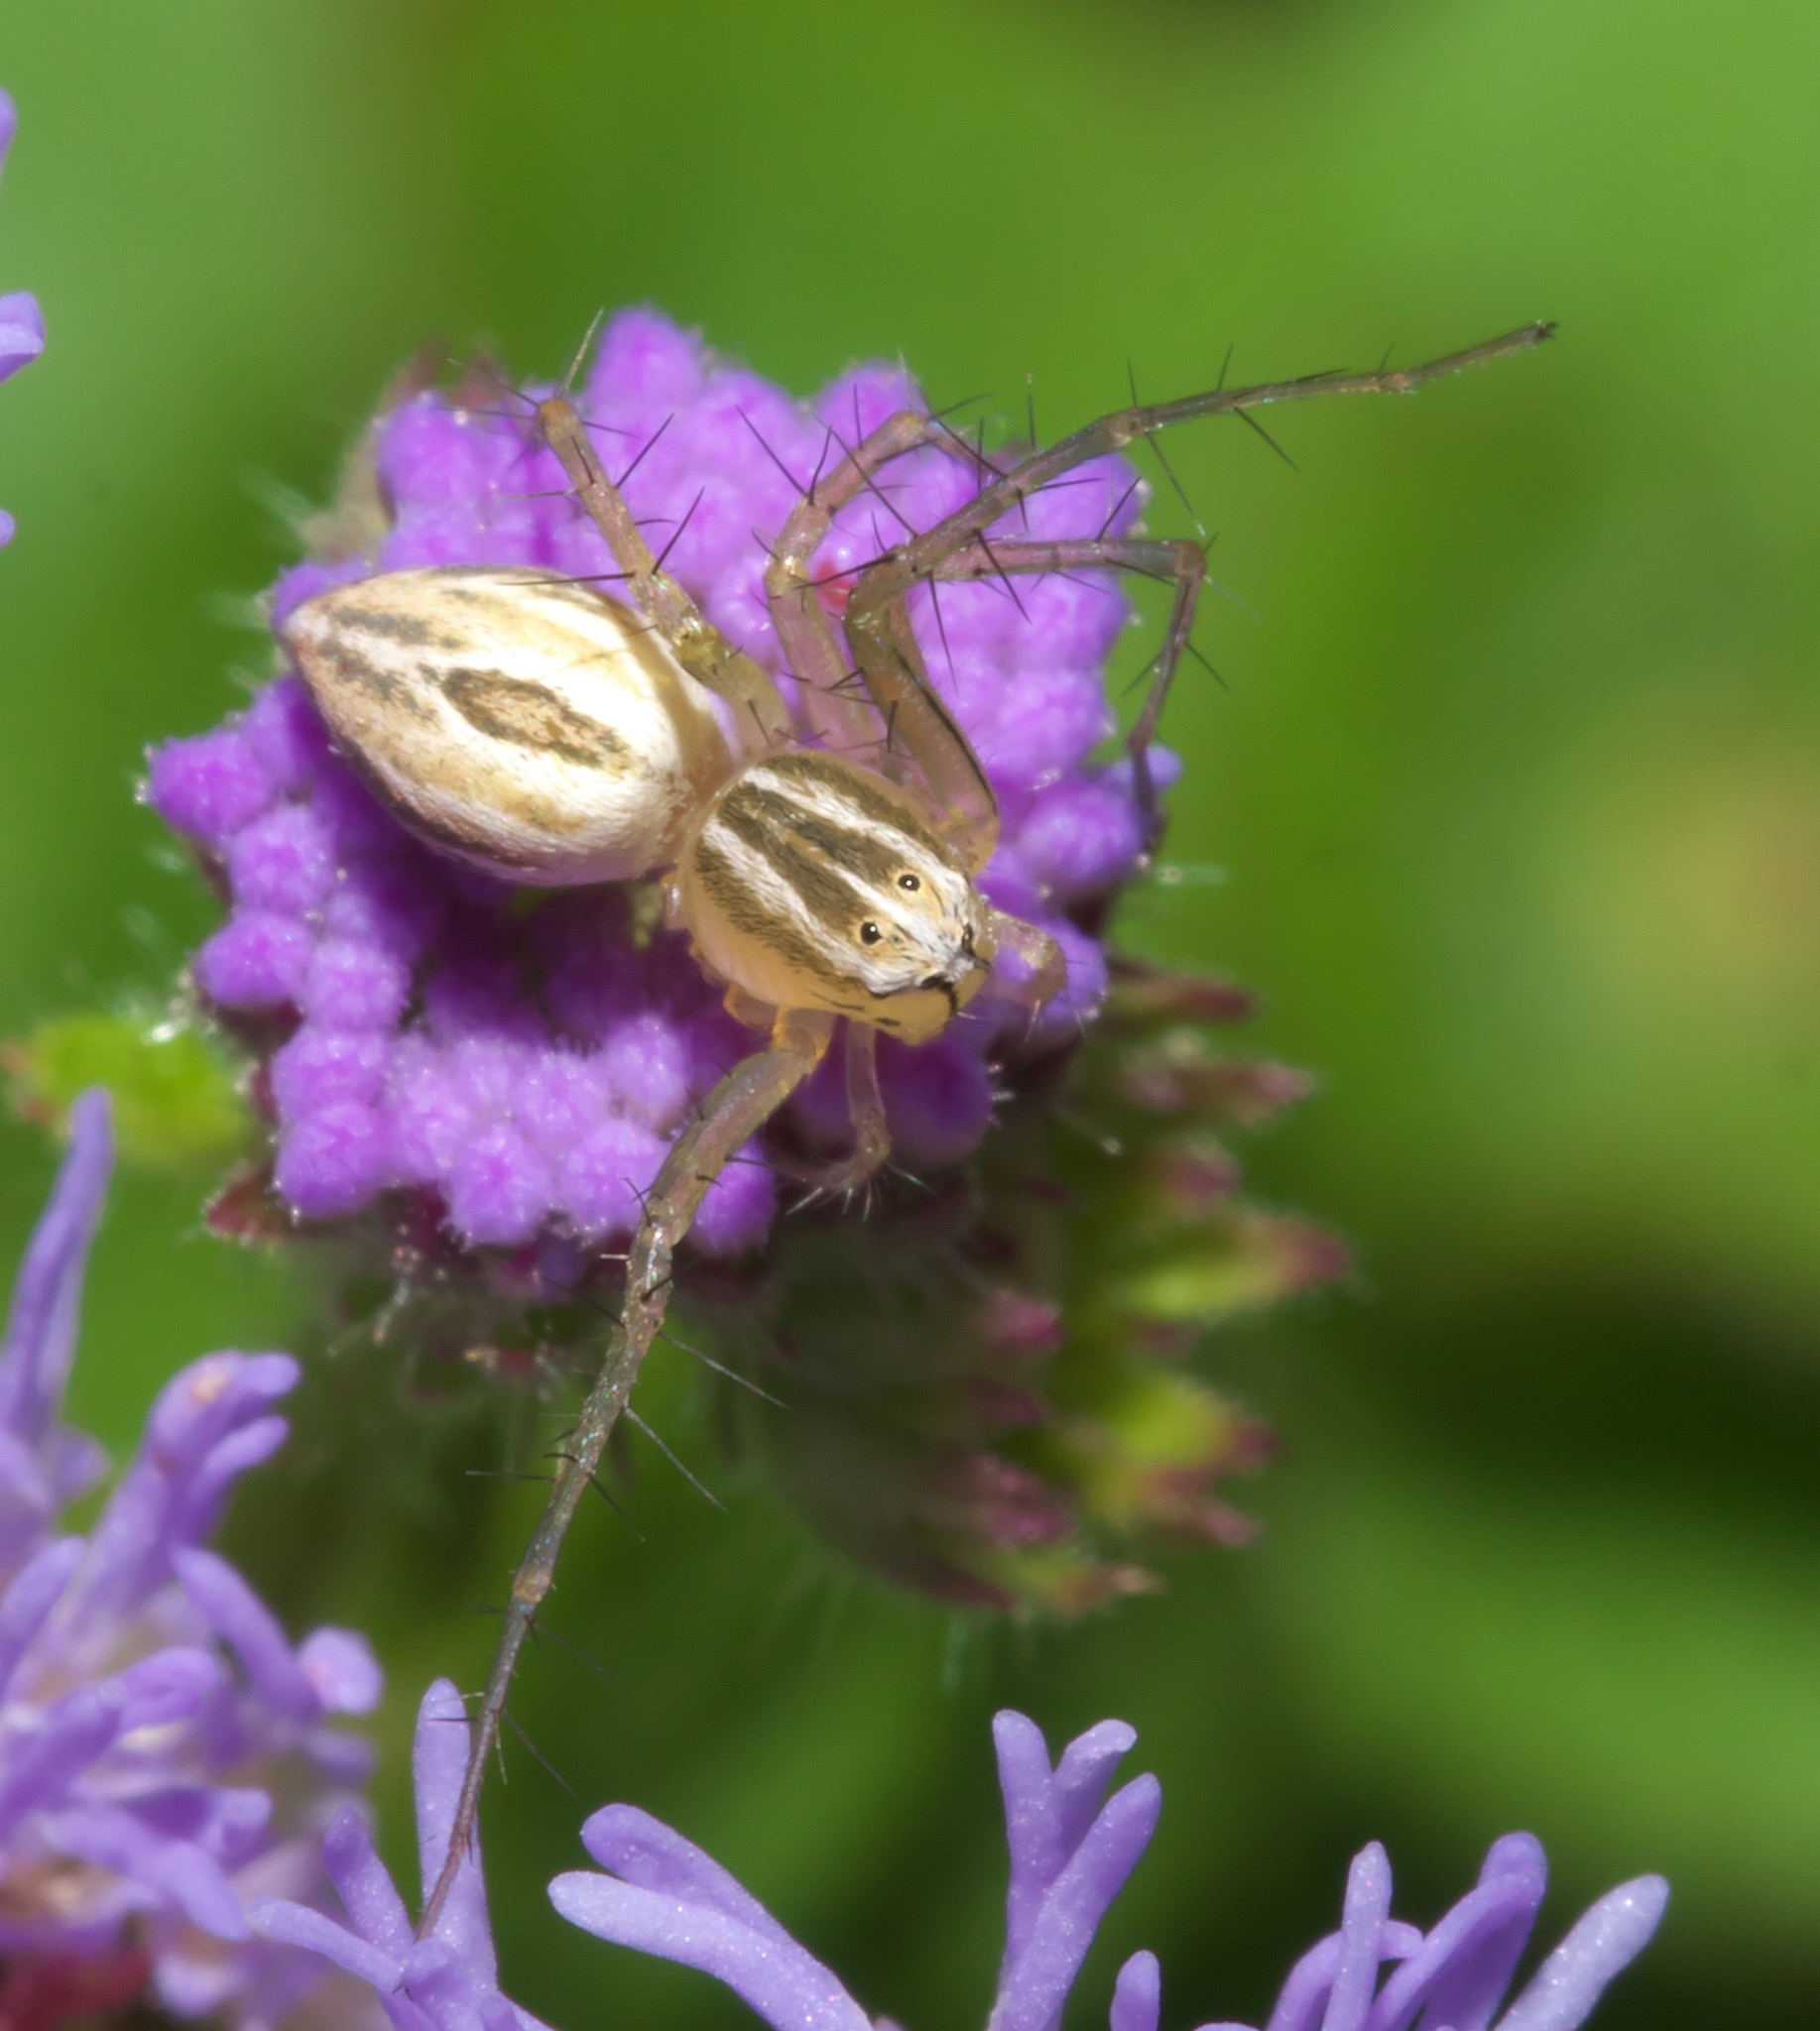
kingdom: Animalia
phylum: Arthropoda
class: Arachnida
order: Araneae
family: Oxyopidae
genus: Oxyopes
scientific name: Oxyopes salticus
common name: Lynx spiders
